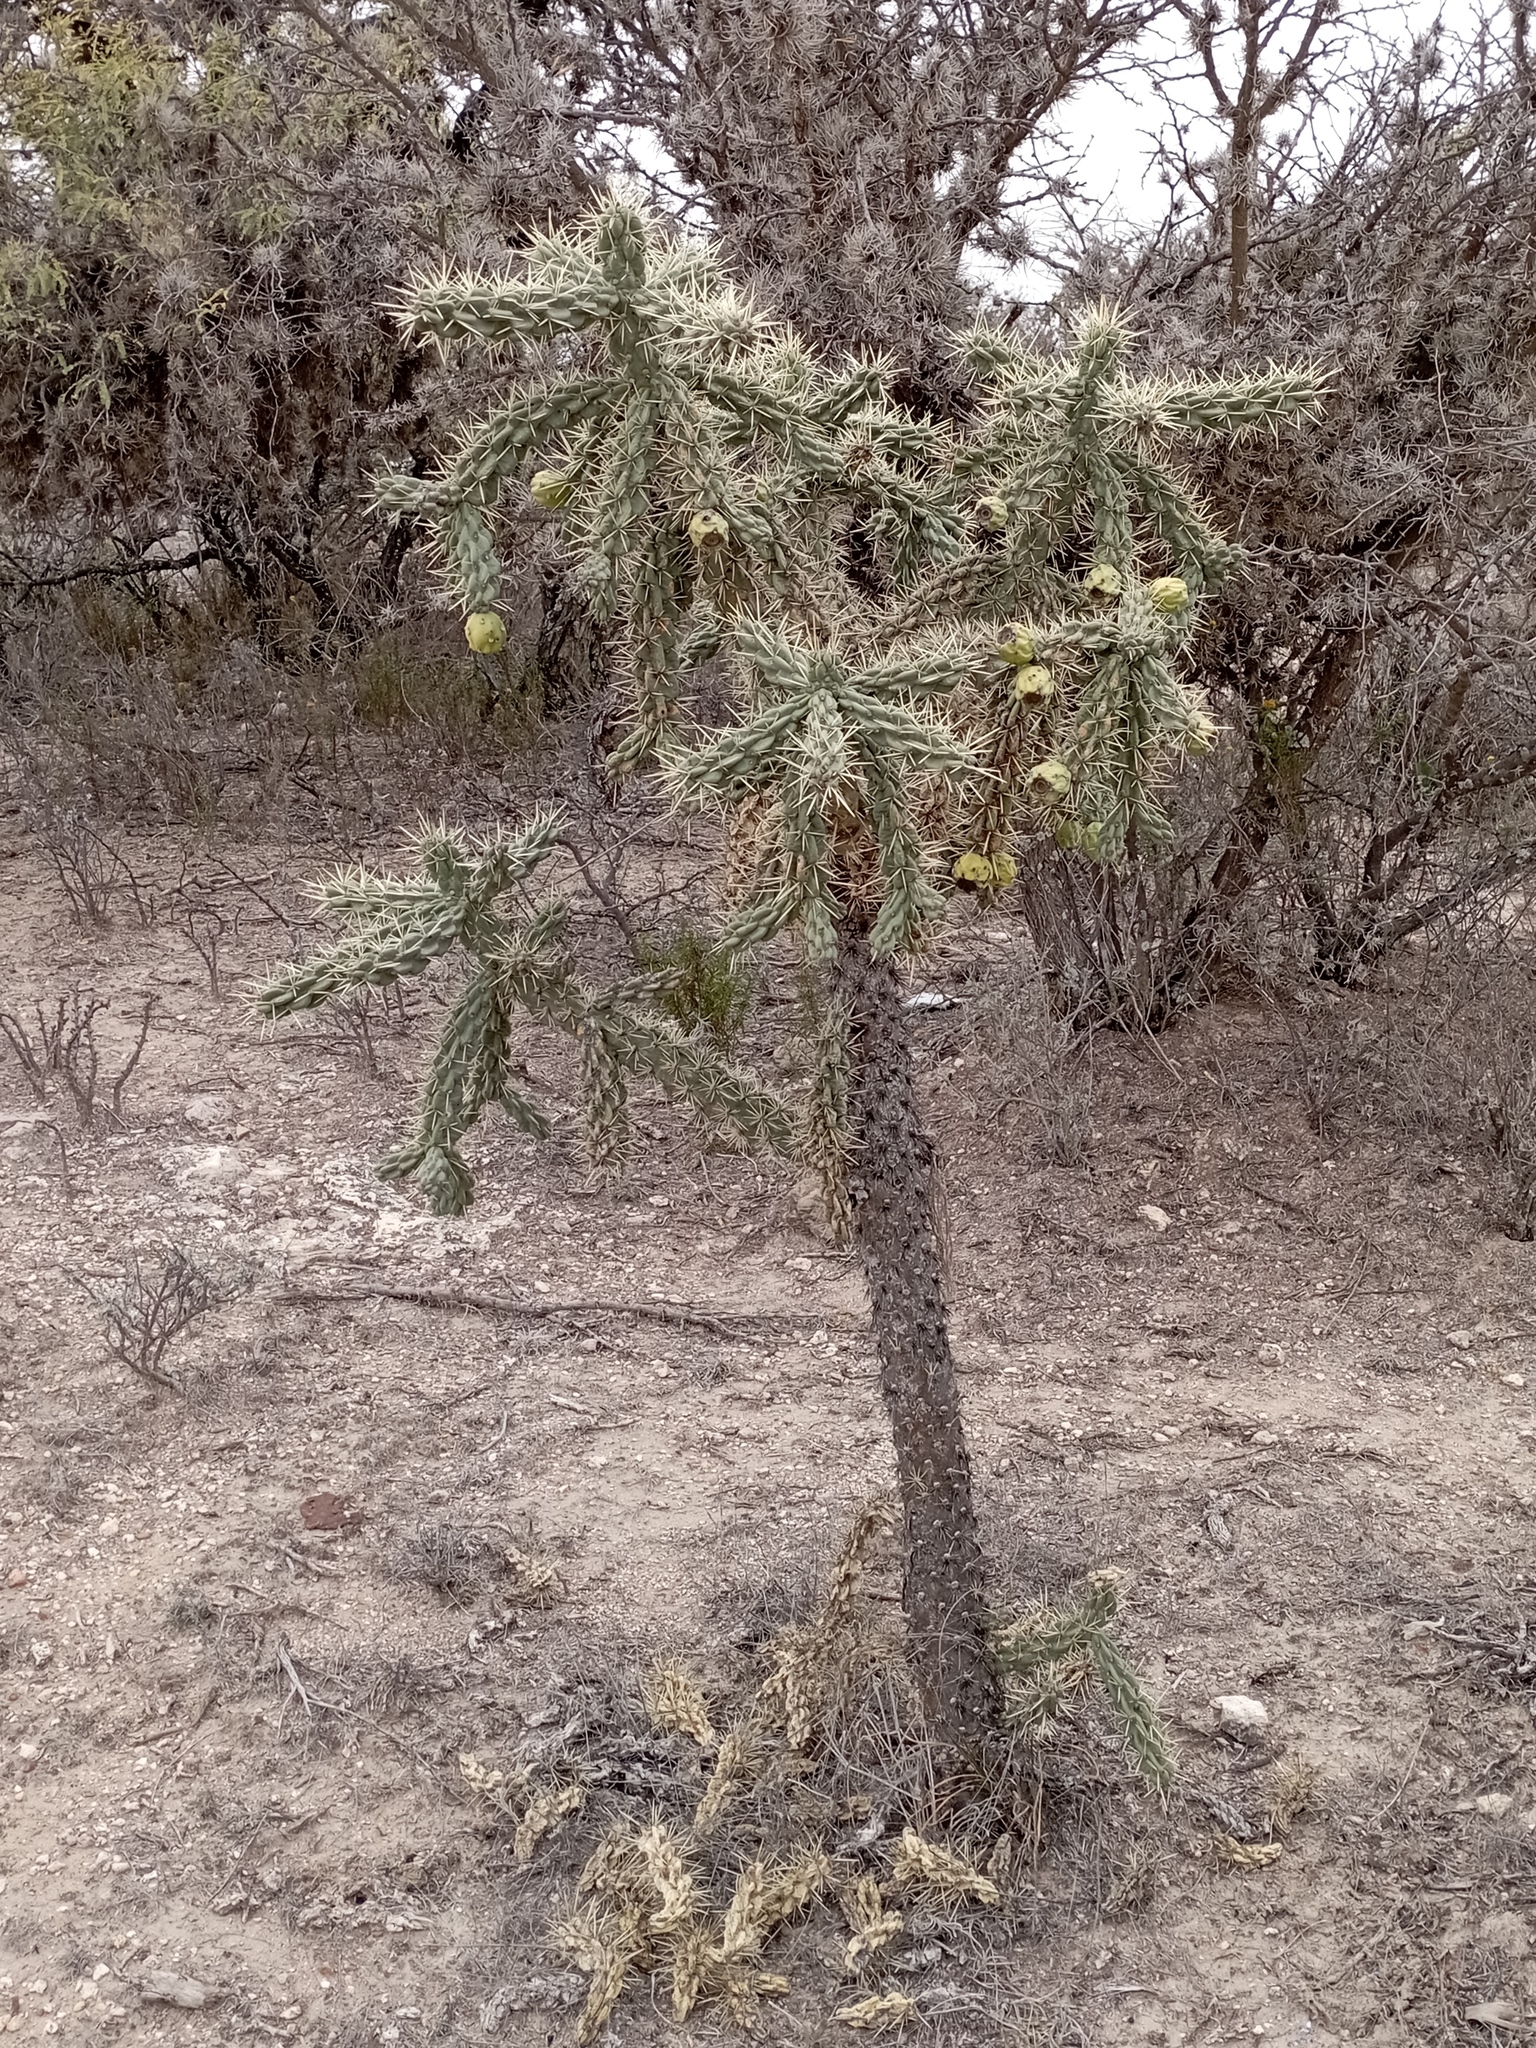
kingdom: Plantae
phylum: Tracheophyta
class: Magnoliopsida
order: Caryophyllales
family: Cactaceae
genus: Cylindropuntia
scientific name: Cylindropuntia imbricata
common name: Candelabrum cactus
